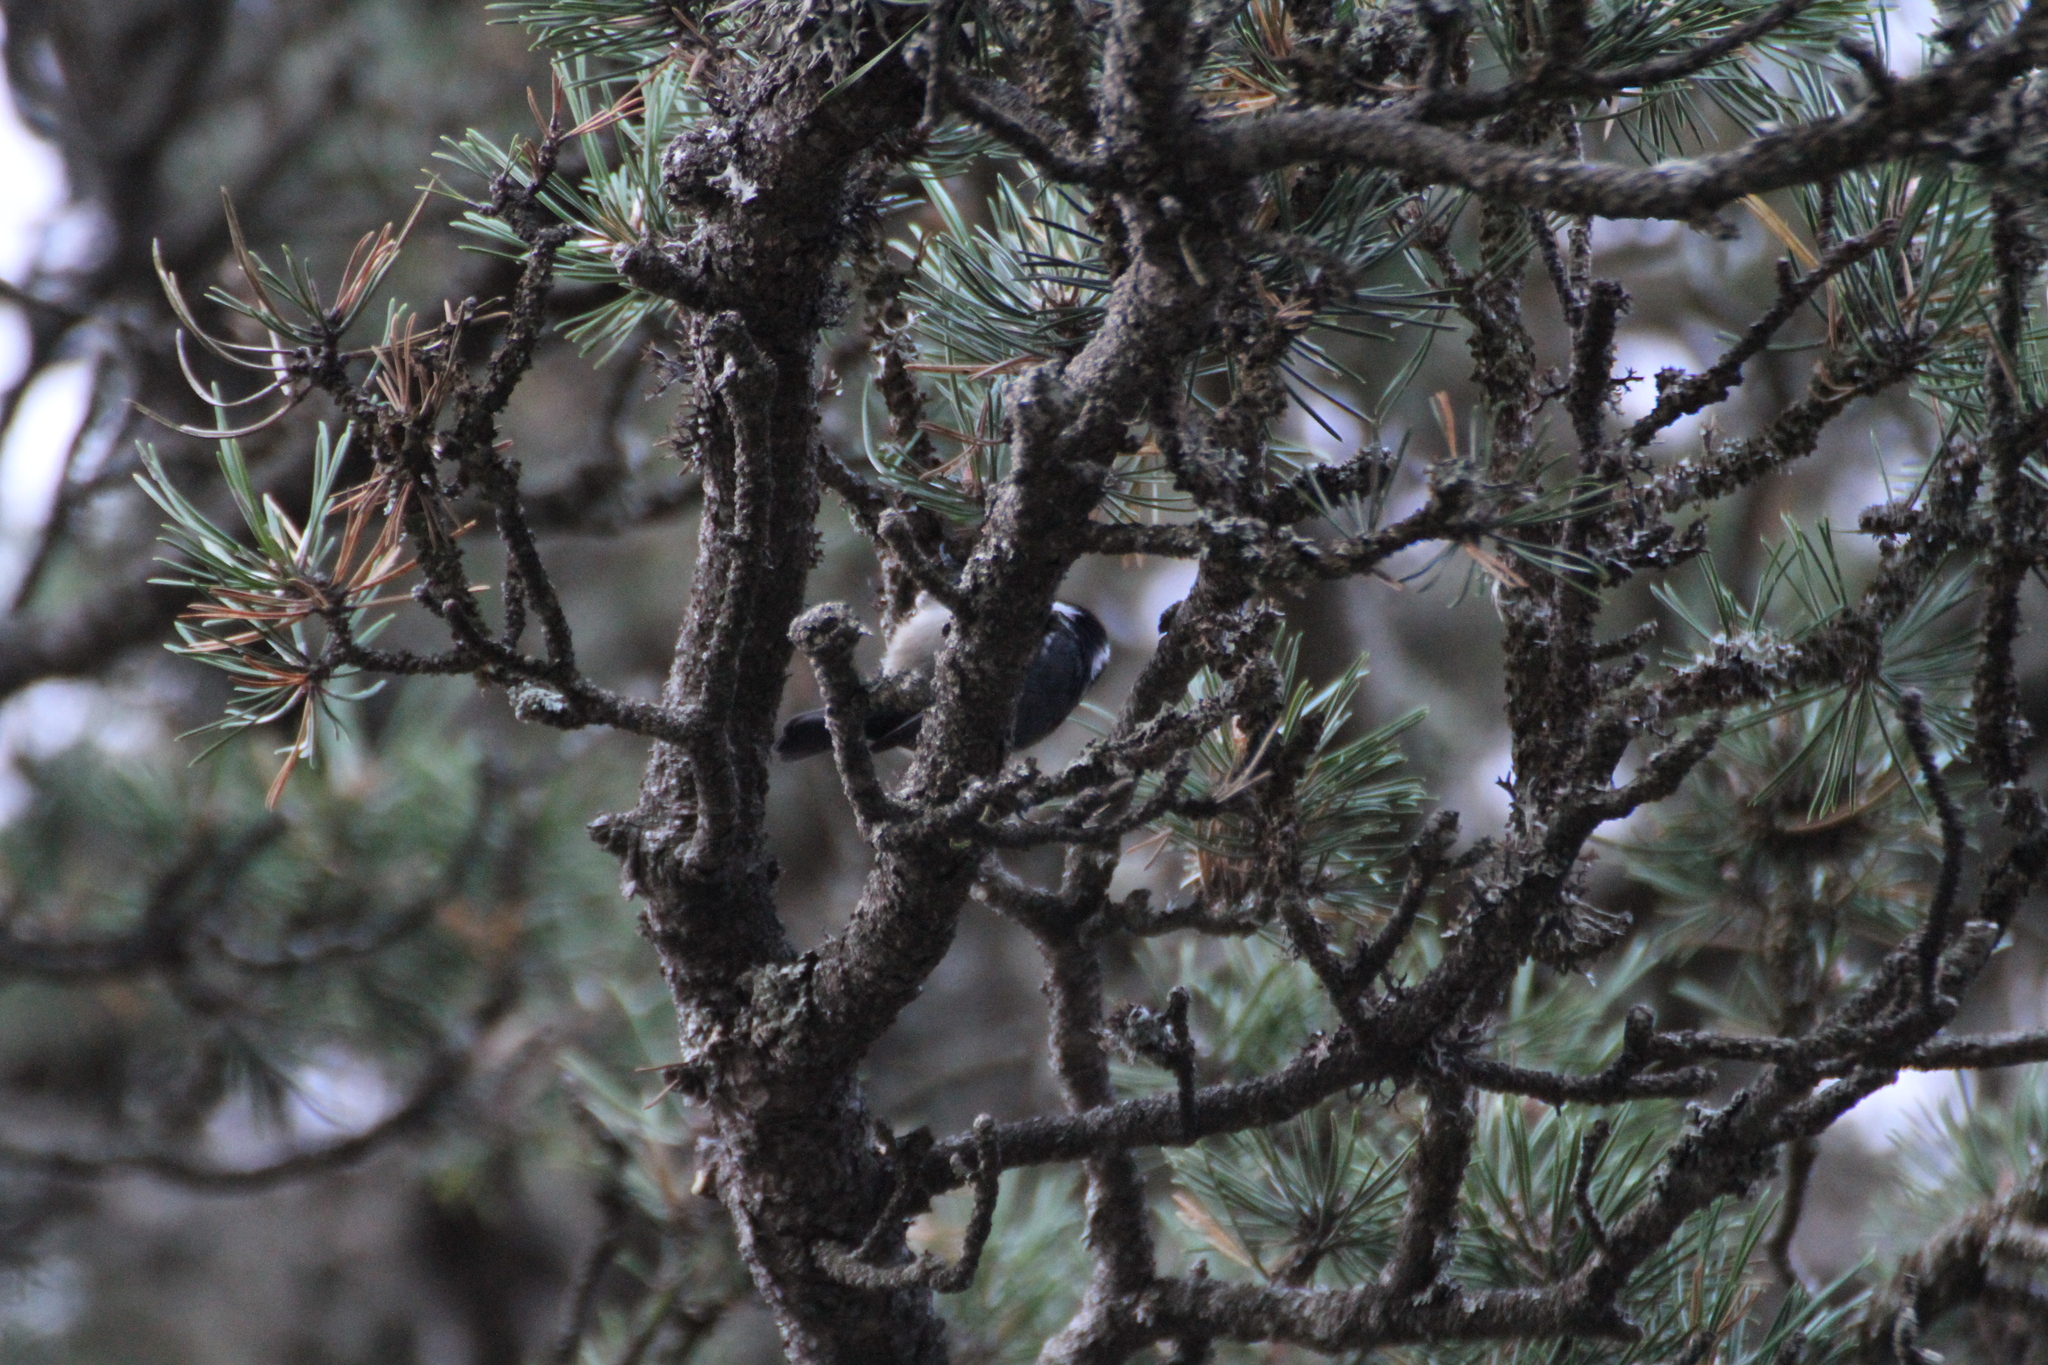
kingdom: Animalia
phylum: Chordata
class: Aves
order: Passeriformes
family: Paridae
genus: Periparus
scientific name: Periparus ater
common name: Coal tit
